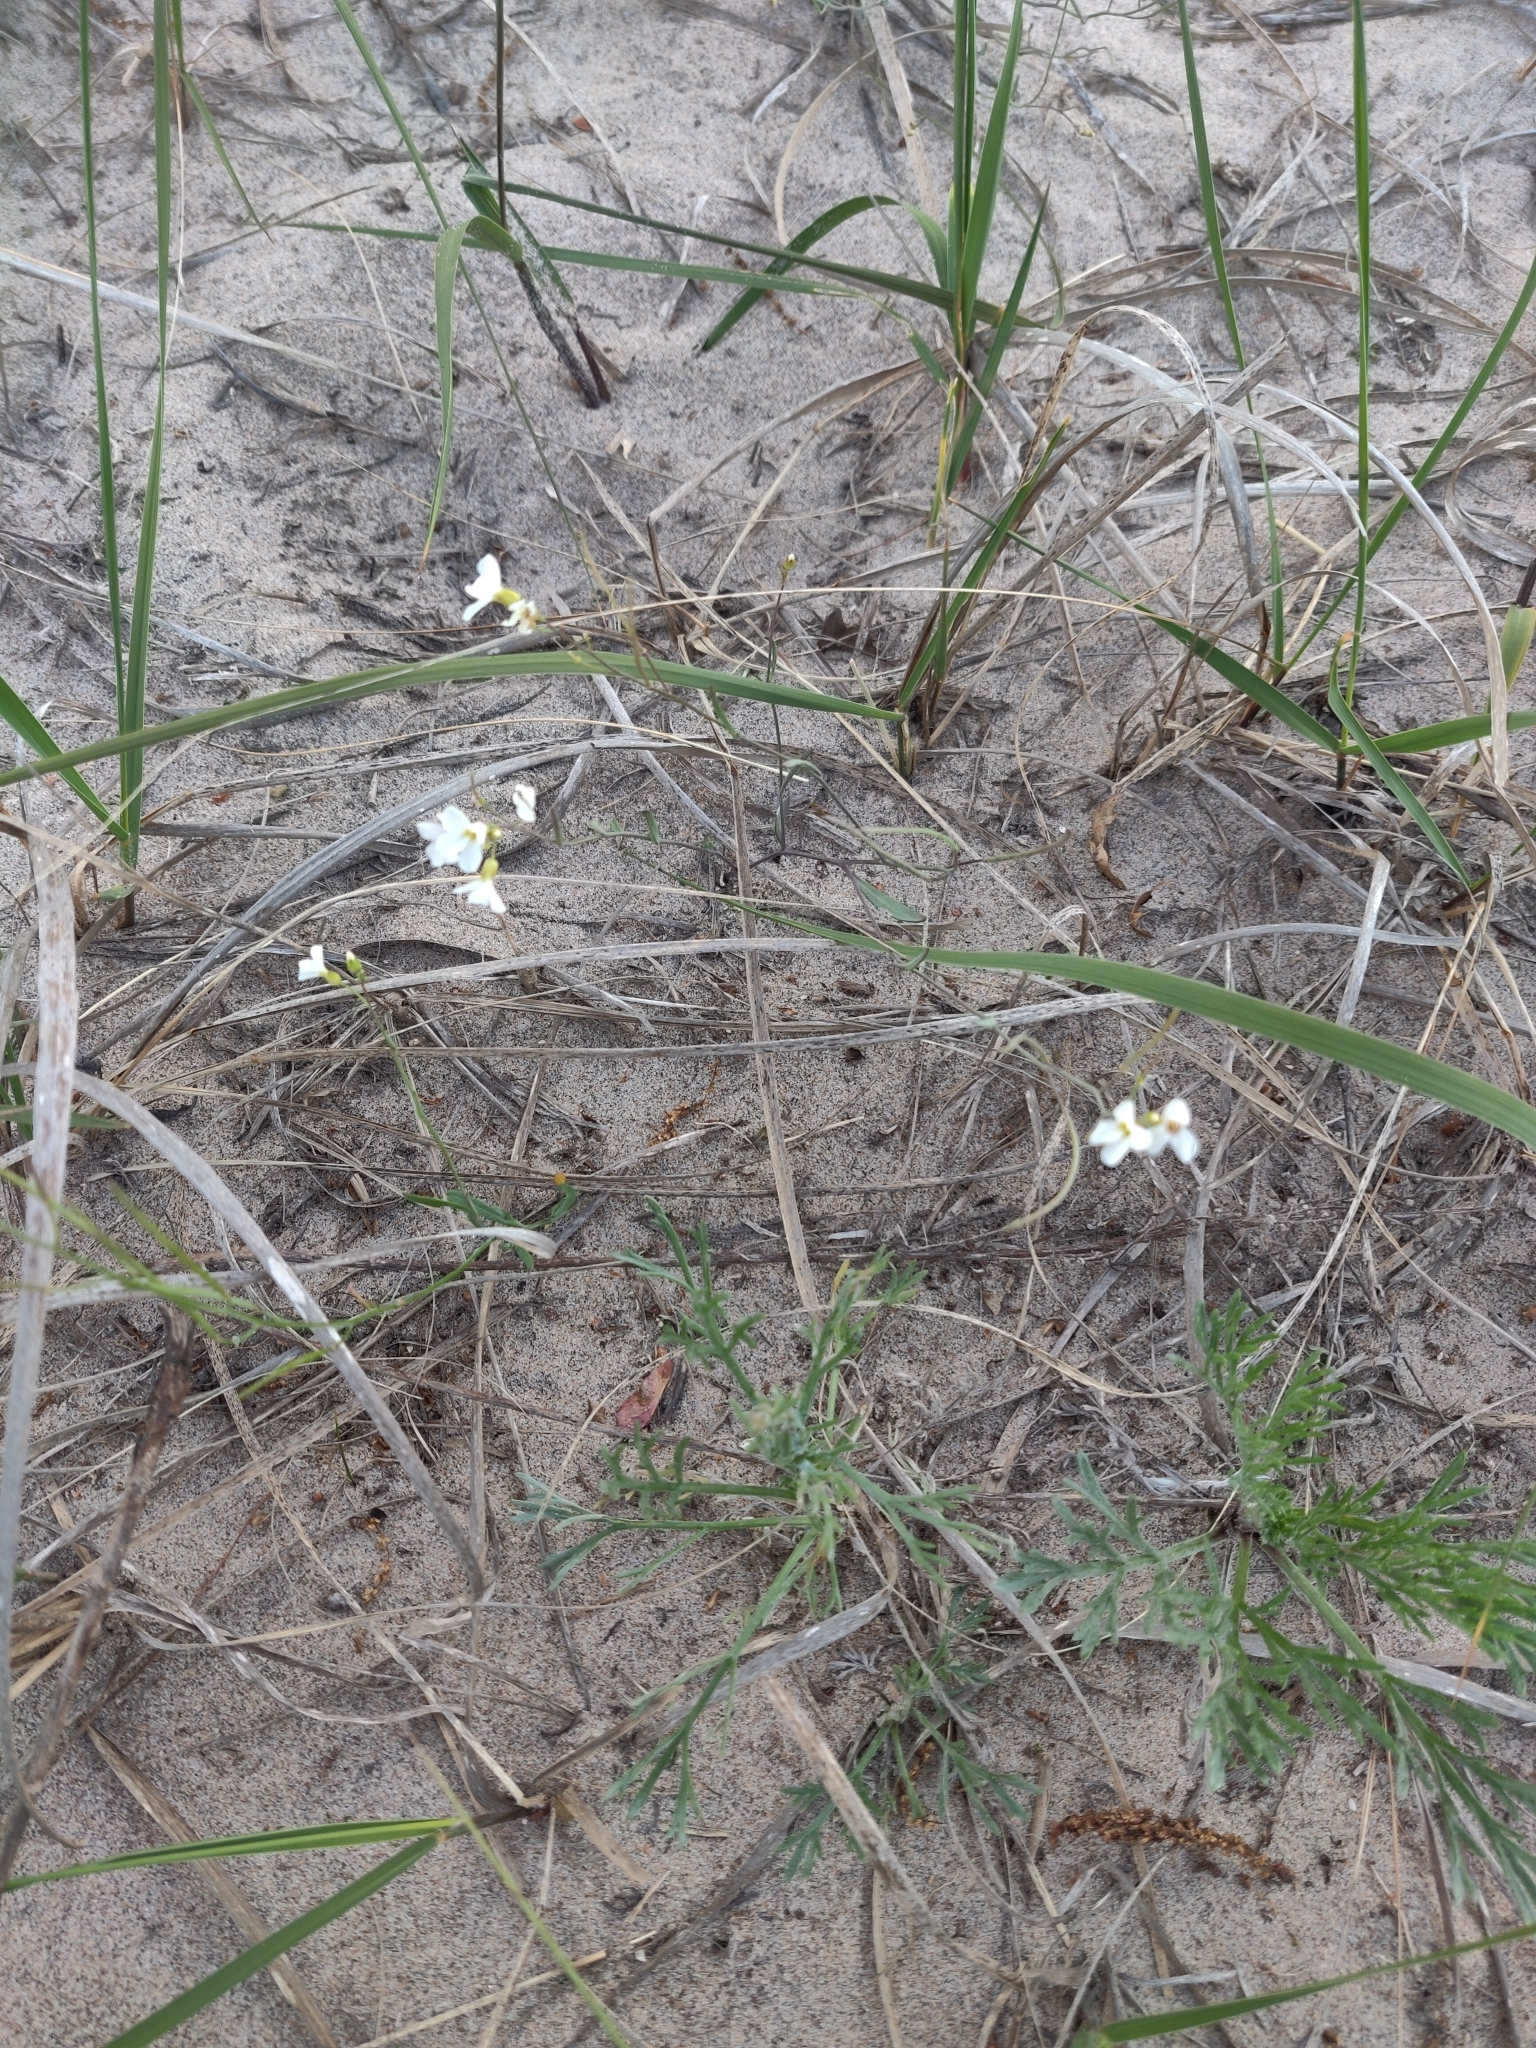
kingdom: Plantae
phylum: Tracheophyta
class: Magnoliopsida
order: Brassicales
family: Brassicaceae
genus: Arabidopsis
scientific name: Arabidopsis lyrata
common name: Lyrate rockcress
